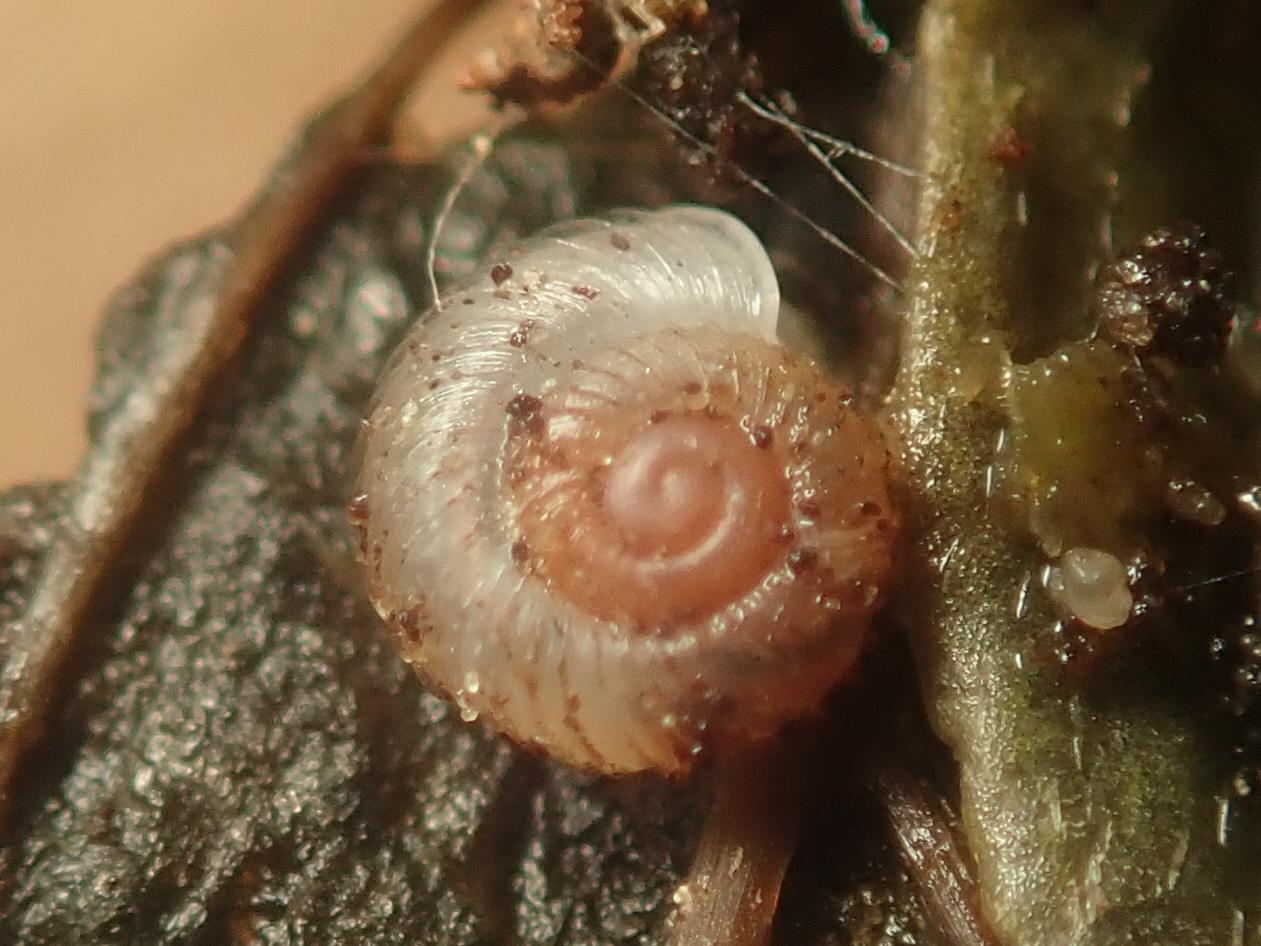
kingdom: Animalia
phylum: Mollusca
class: Gastropoda
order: Stylommatophora
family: Valloniidae
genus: Vallonia
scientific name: Vallonia costata
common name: Ribbed grass snail
